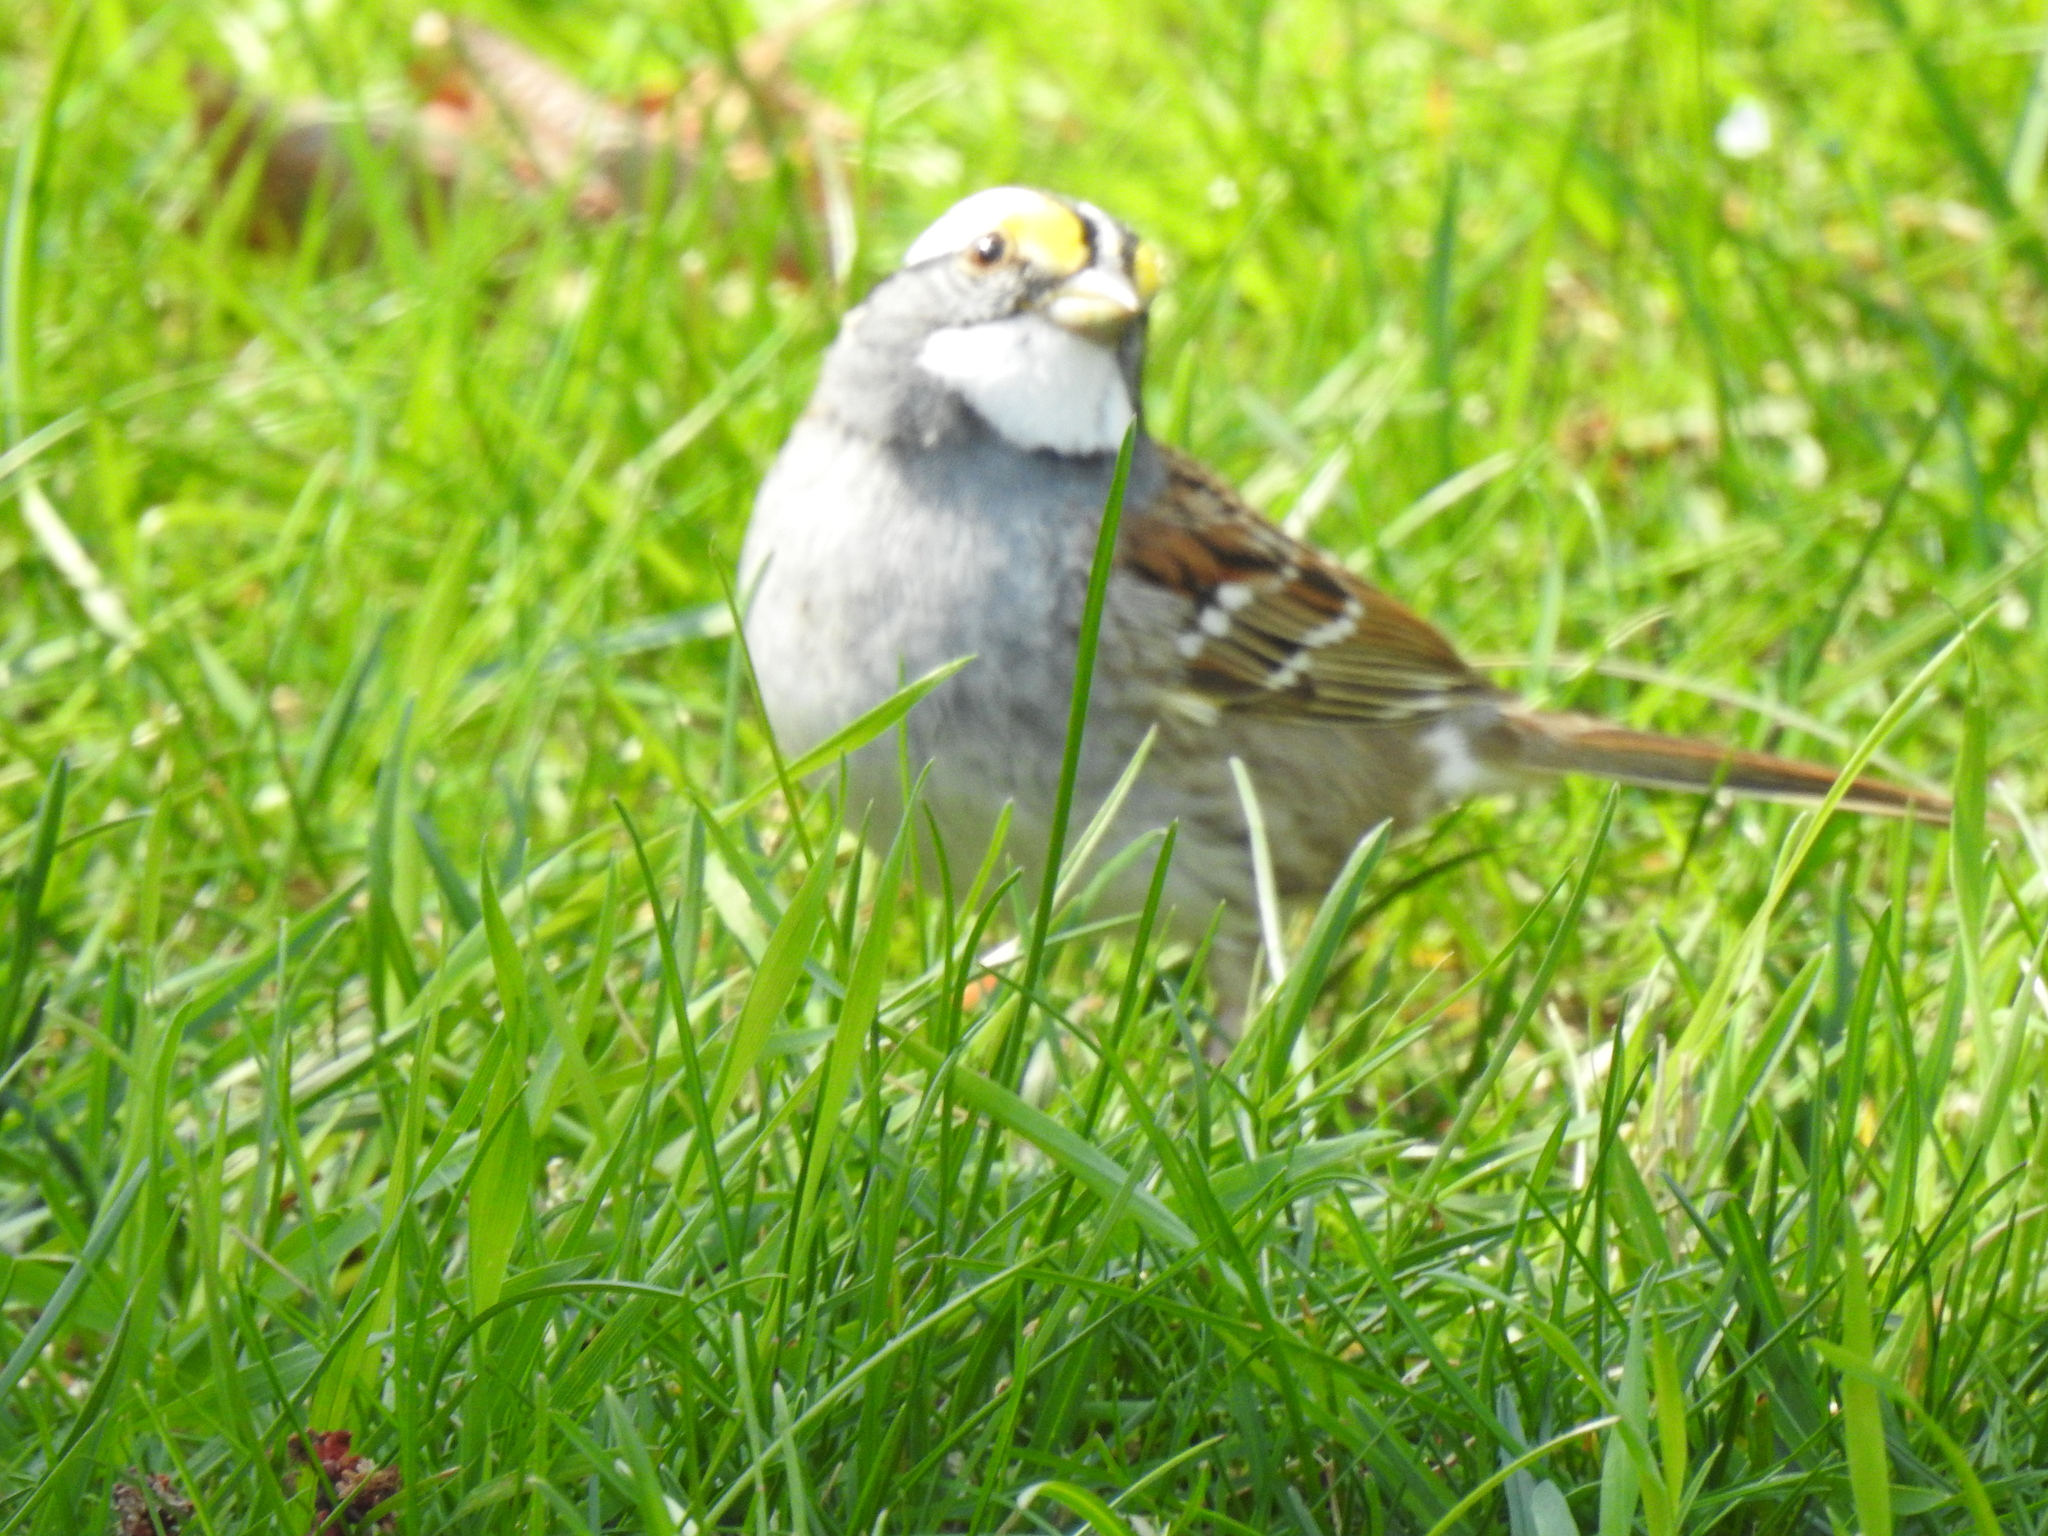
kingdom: Animalia
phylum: Chordata
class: Aves
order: Passeriformes
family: Passerellidae
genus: Zonotrichia
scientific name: Zonotrichia albicollis
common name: White-throated sparrow
